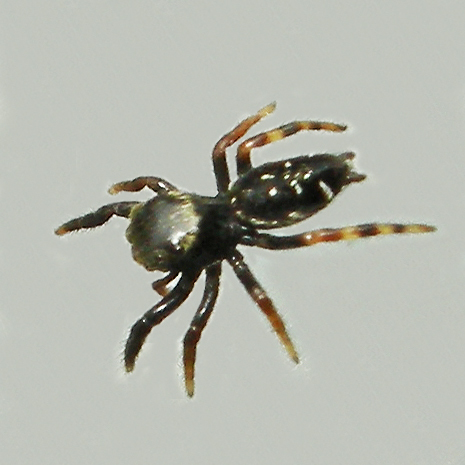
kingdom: Animalia
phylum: Arthropoda
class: Arachnida
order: Araneae
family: Salticidae
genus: Paraphidippus
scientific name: Paraphidippus aurantius
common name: Jumping spiders
